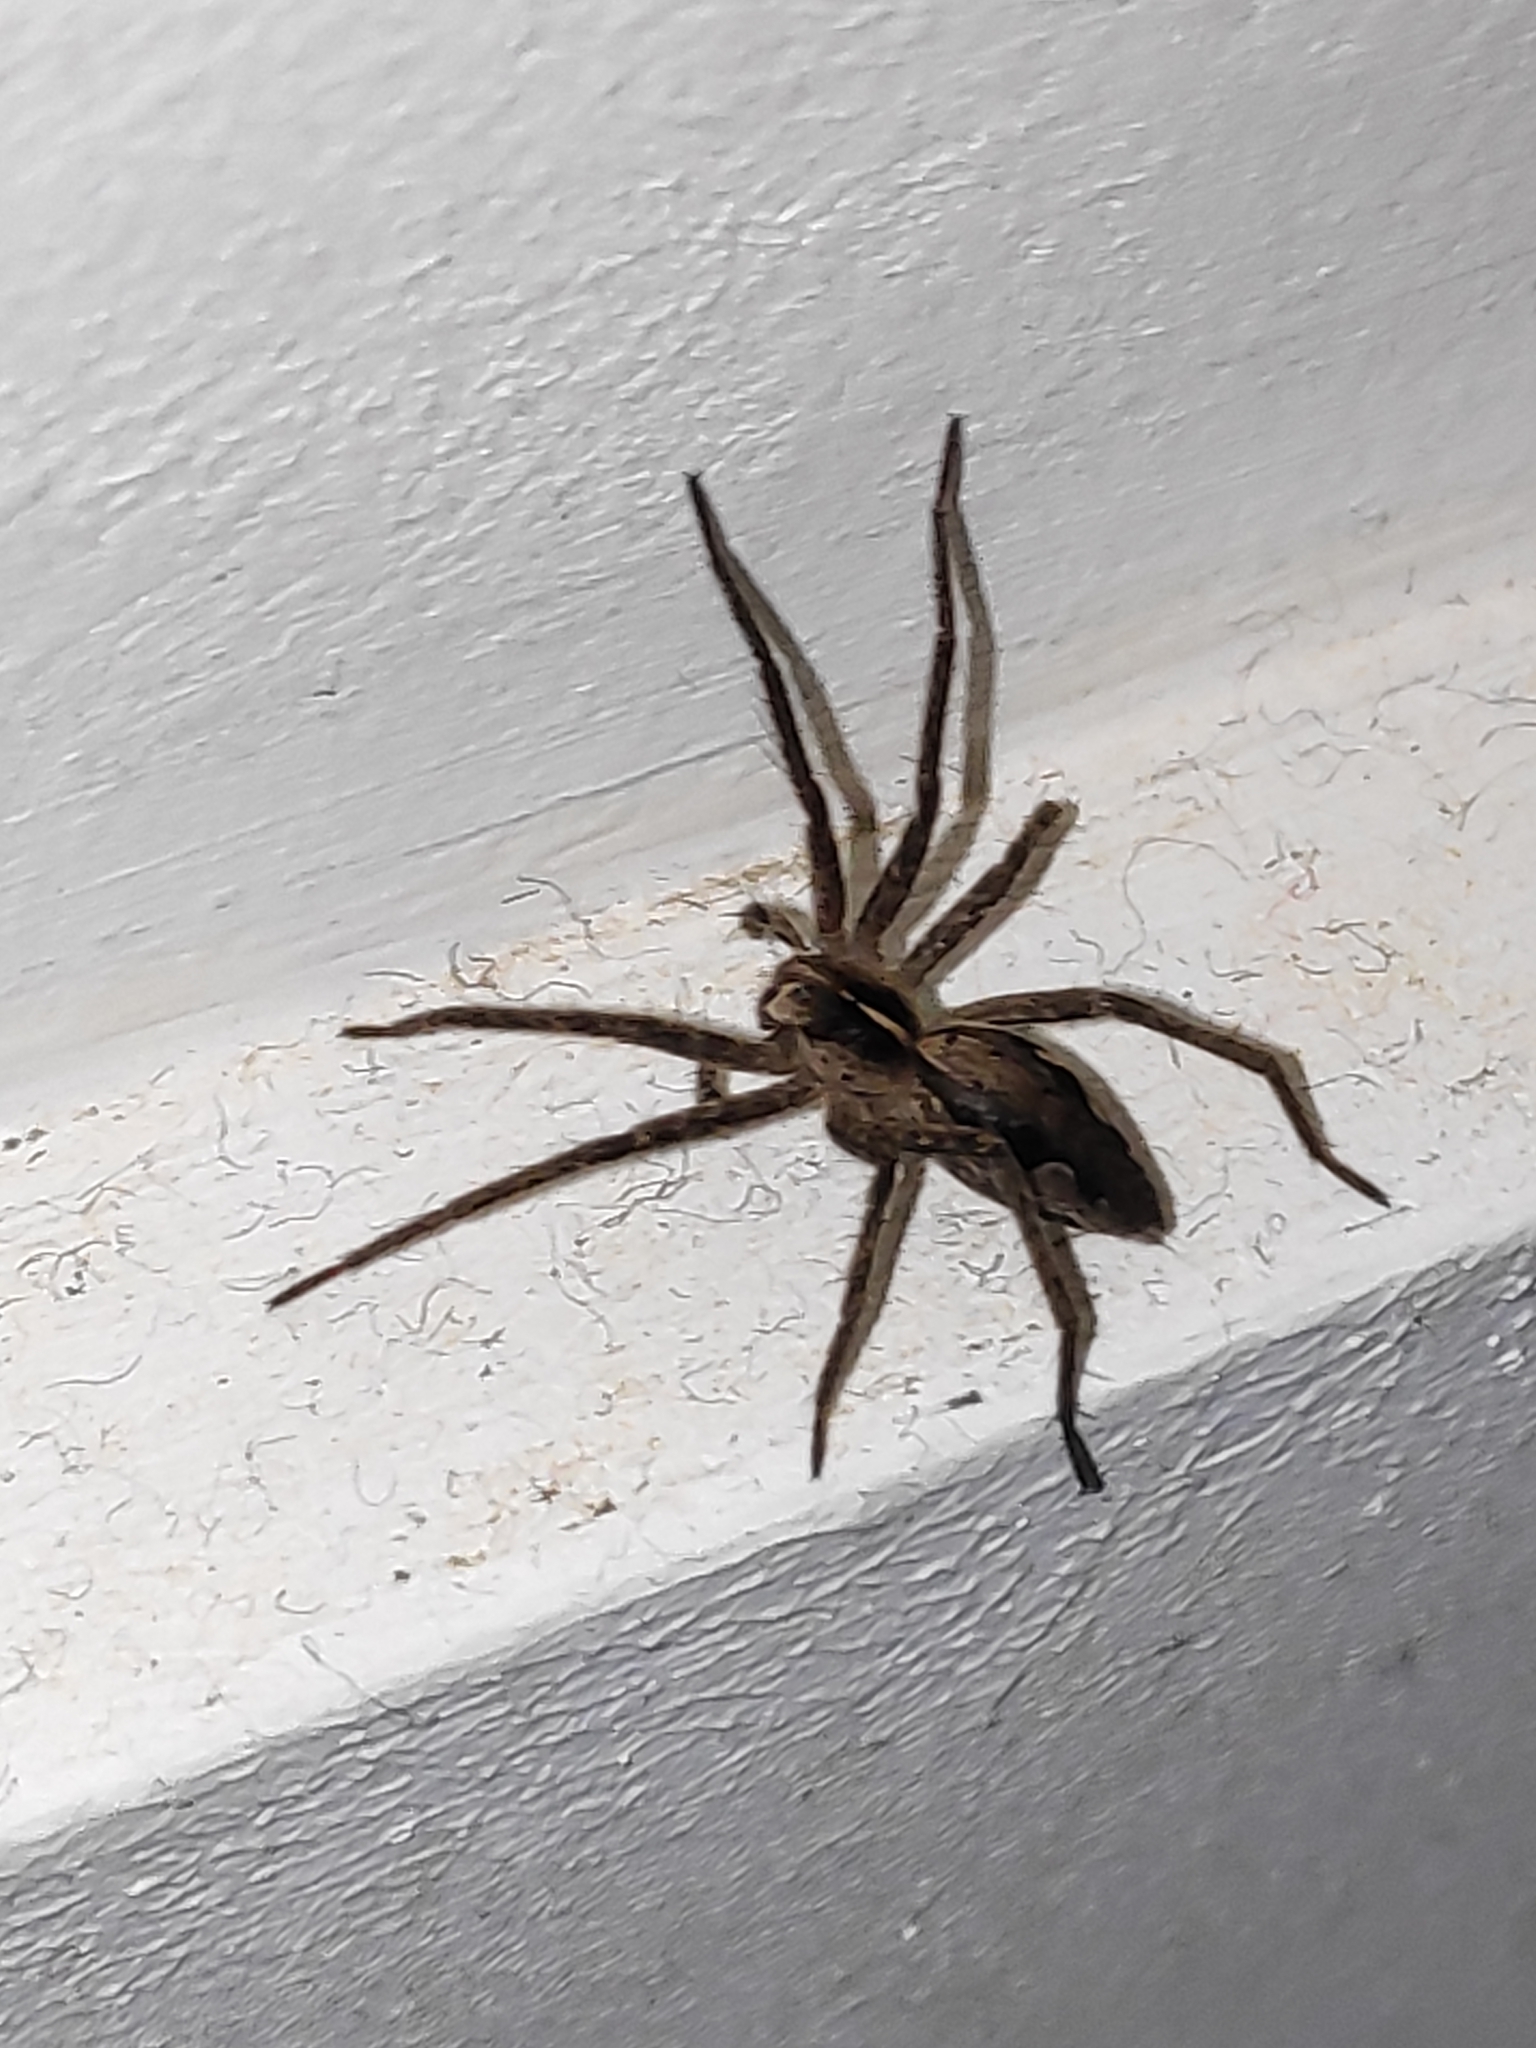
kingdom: Animalia
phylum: Arthropoda
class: Arachnida
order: Araneae
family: Pisauridae
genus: Pisaura
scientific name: Pisaura mirabilis
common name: Tent spider
